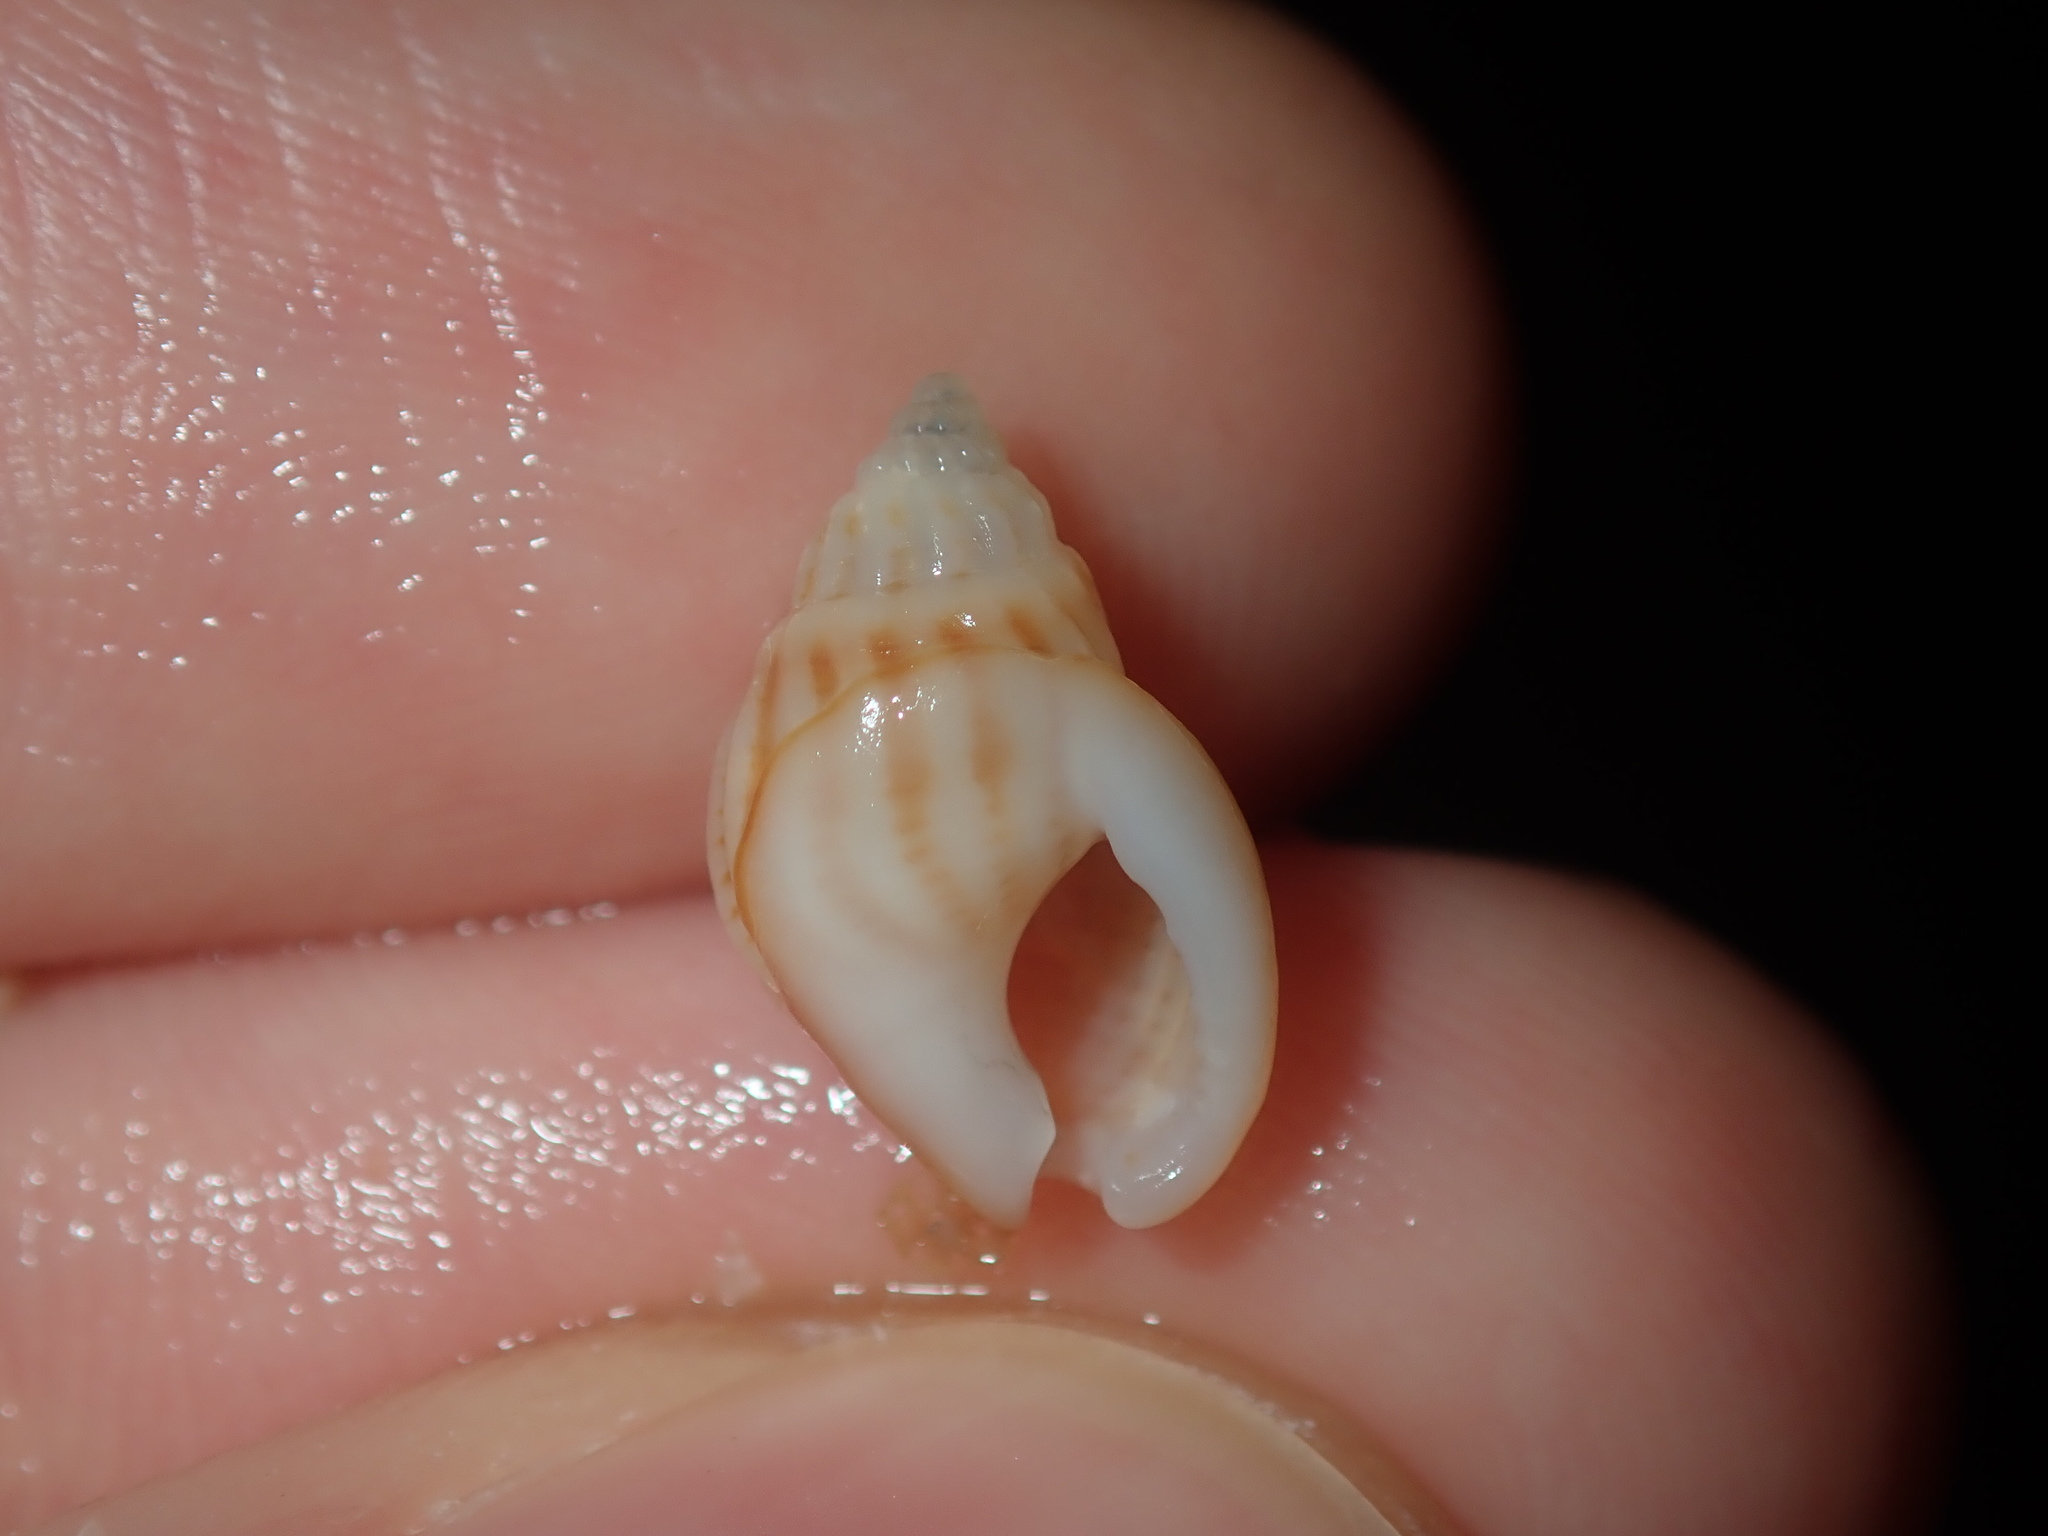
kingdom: Animalia
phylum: Mollusca
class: Gastropoda
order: Neogastropoda
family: Nassariidae
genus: Nassarius
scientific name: Nassarius jonasii
